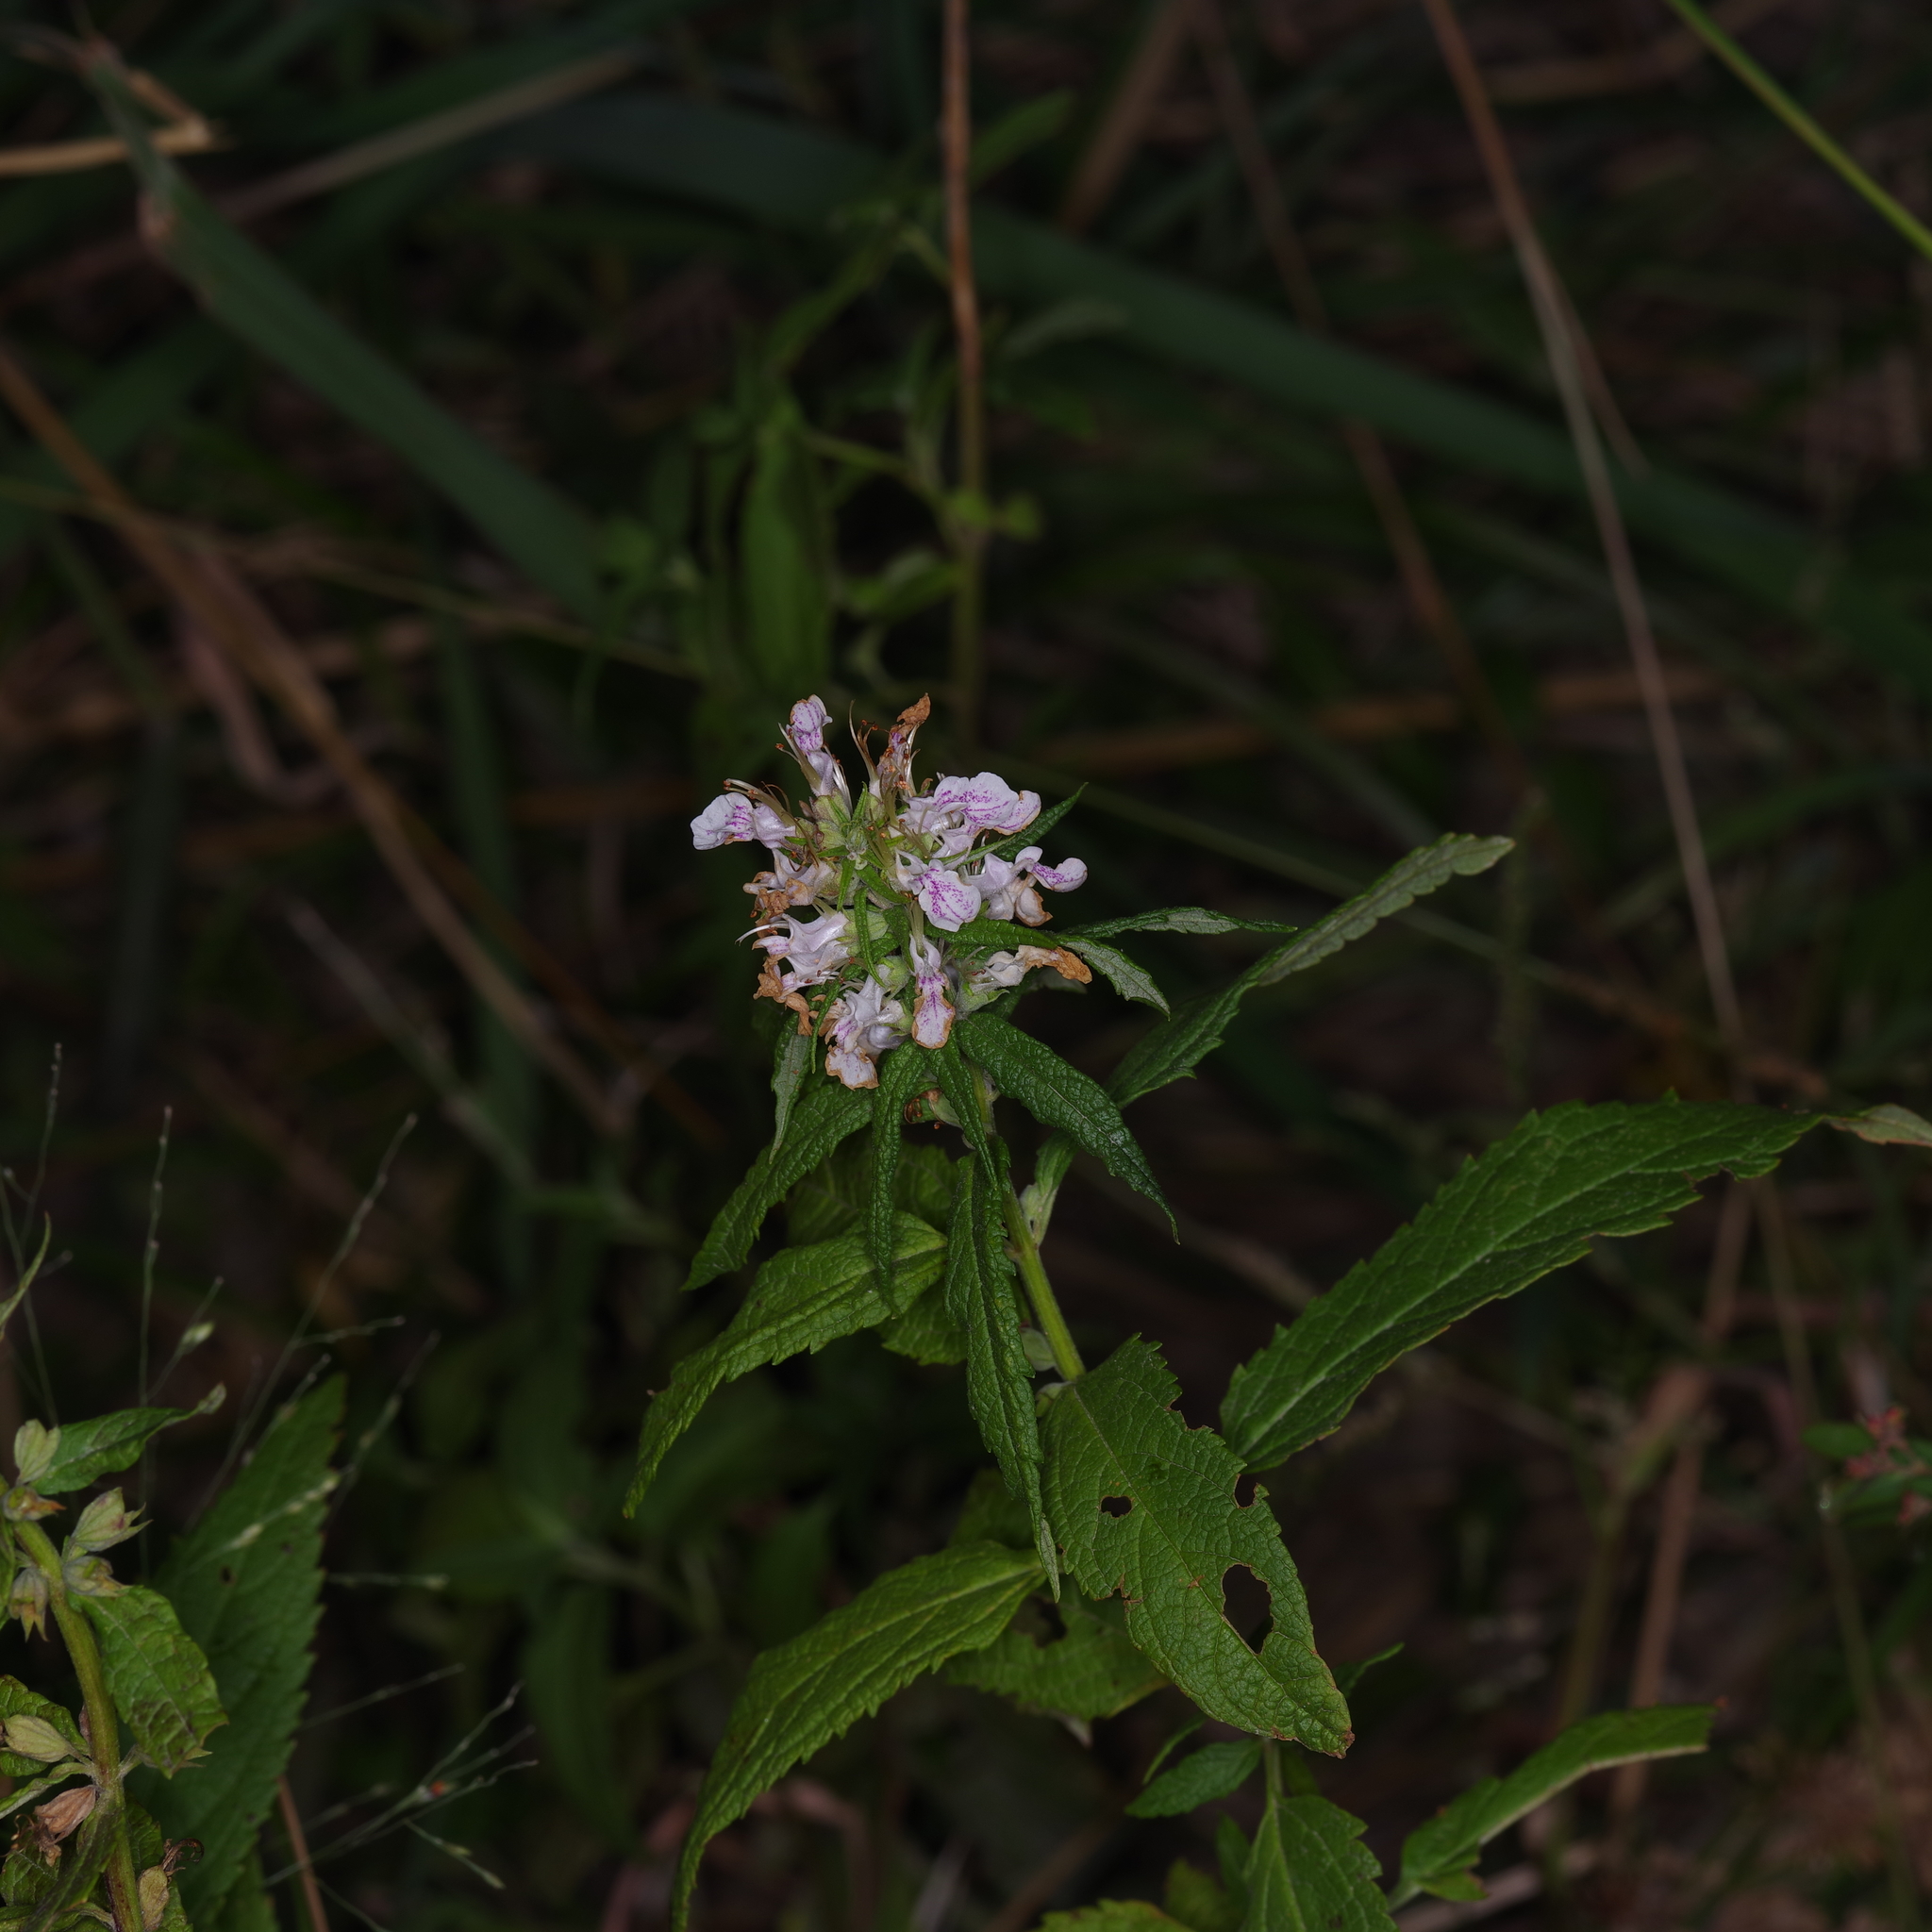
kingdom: Plantae
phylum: Tracheophyta
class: Magnoliopsida
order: Lamiales
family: Lamiaceae
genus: Teucrium
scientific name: Teucrium canadense
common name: American germander
